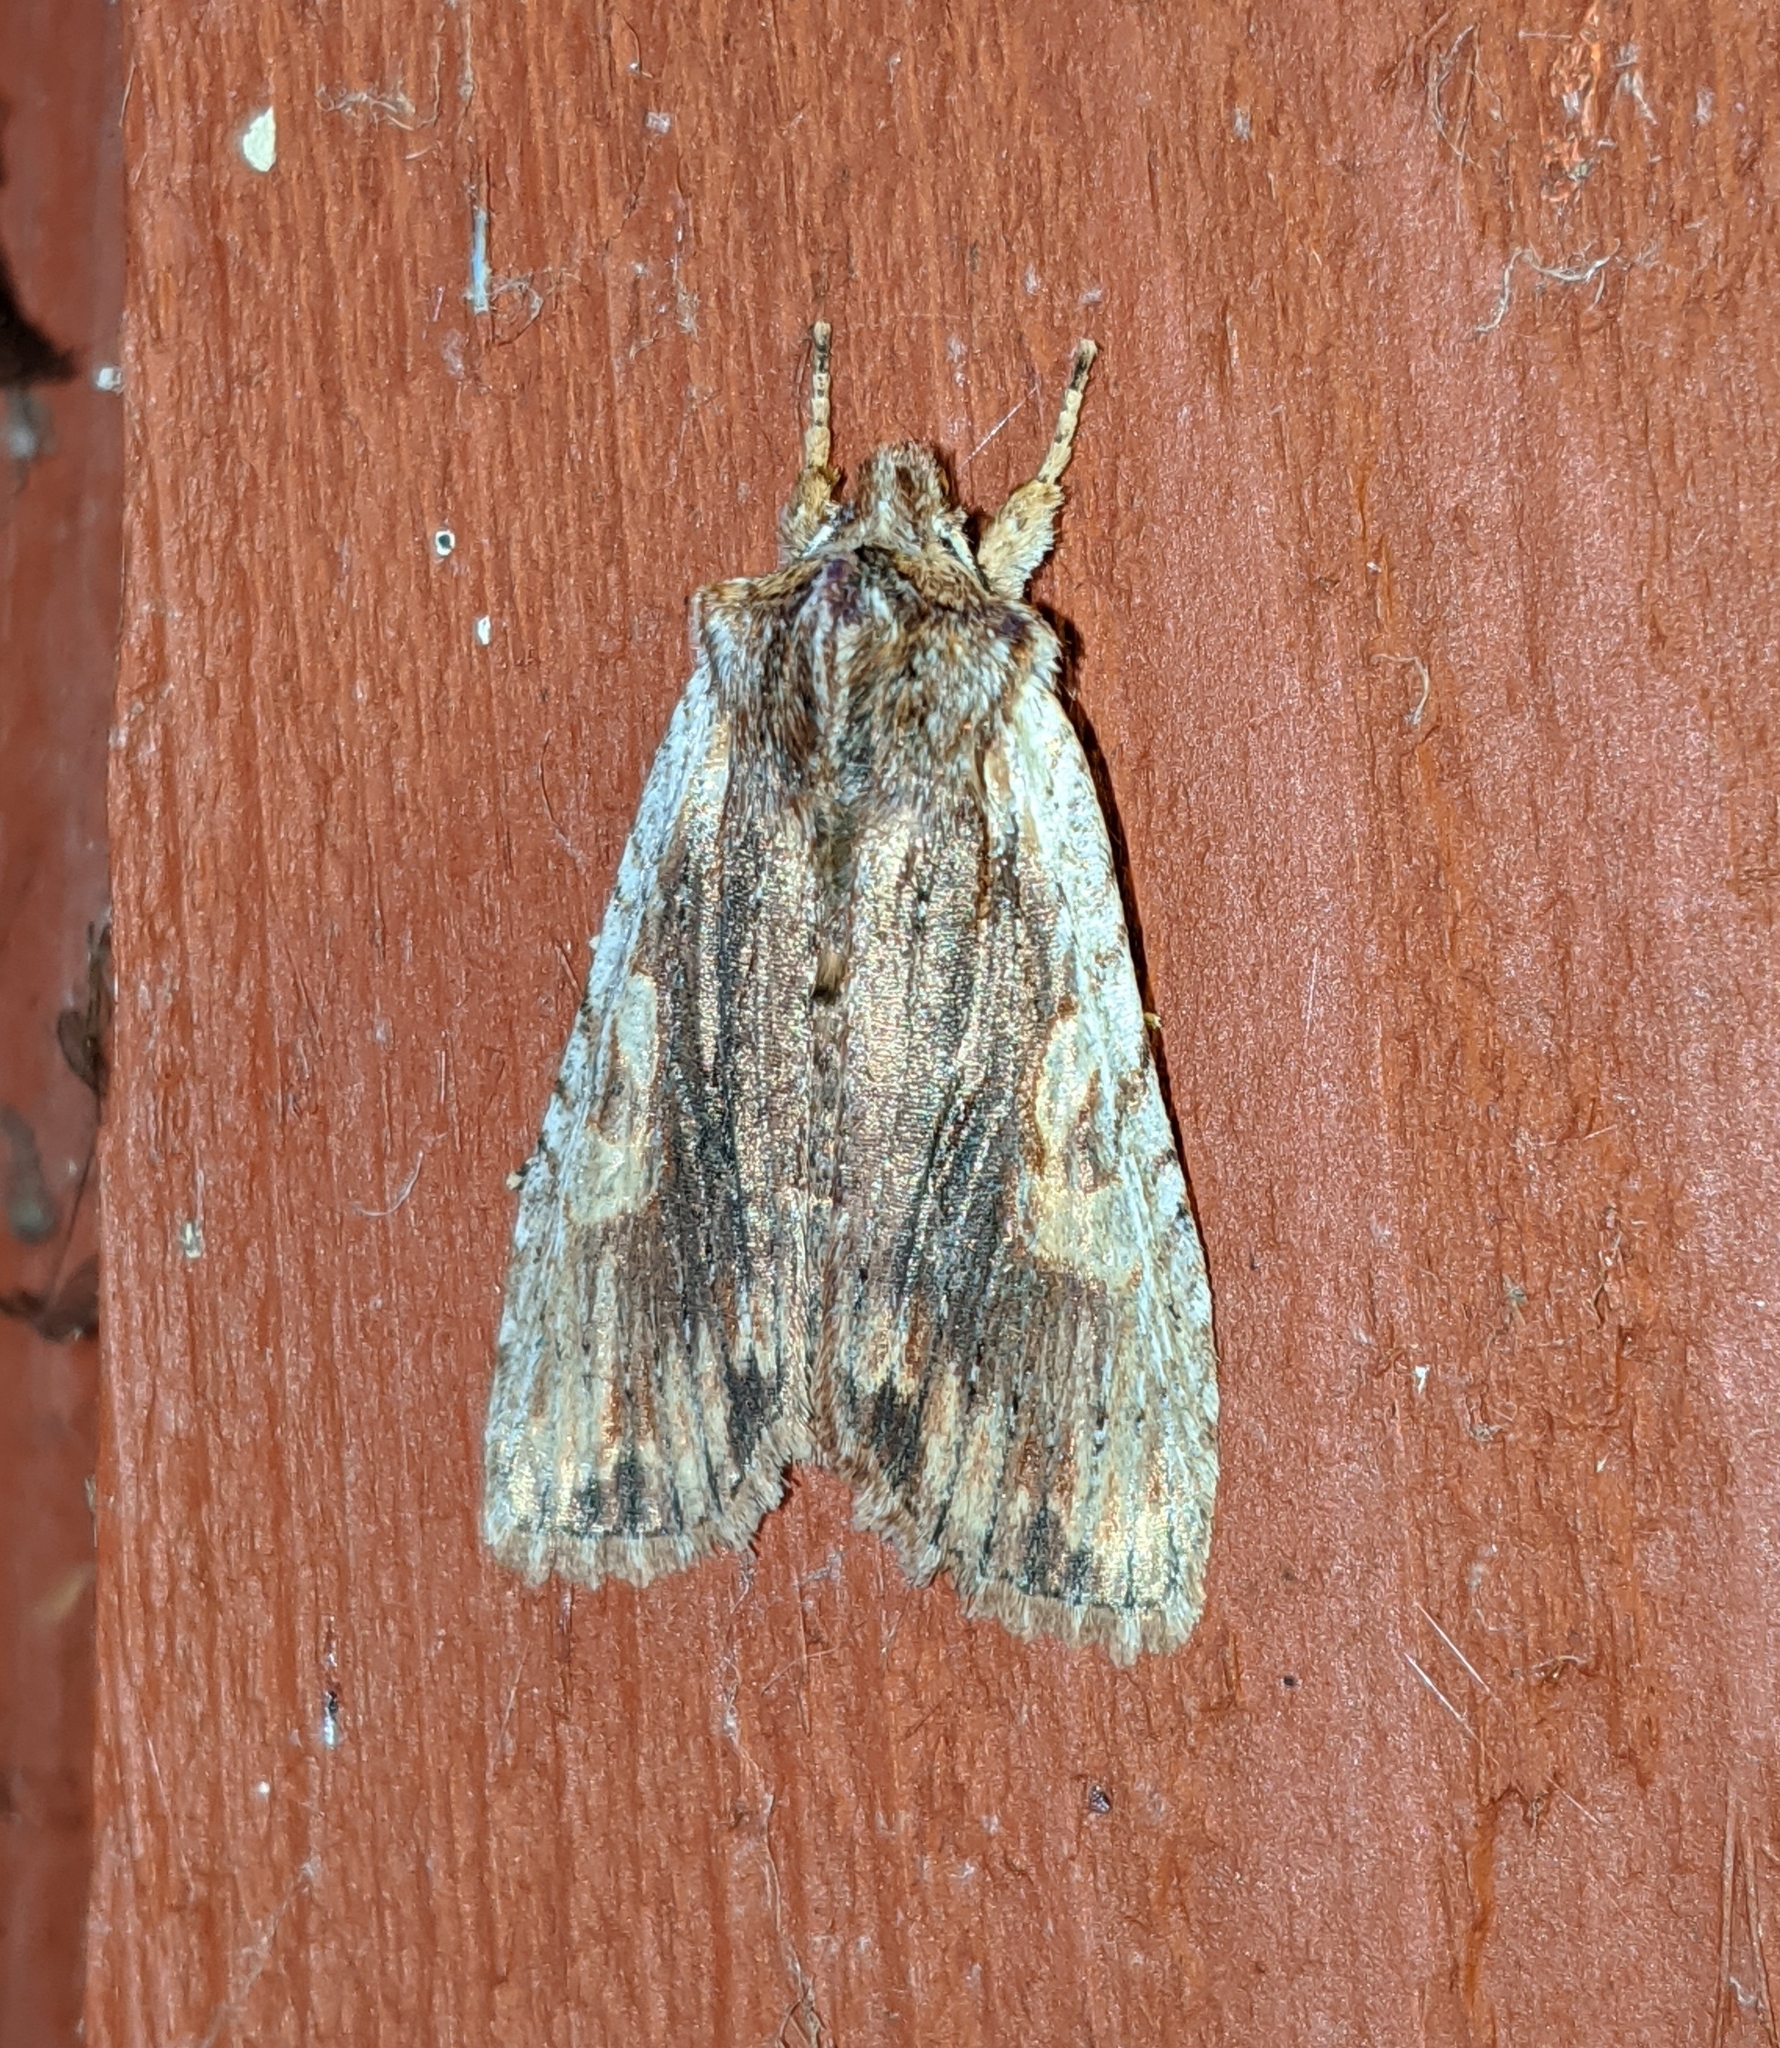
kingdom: Animalia
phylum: Arthropoda
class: Insecta
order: Lepidoptera
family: Noctuidae
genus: Lithophane
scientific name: Lithophane petulca
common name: Wanton pinion
